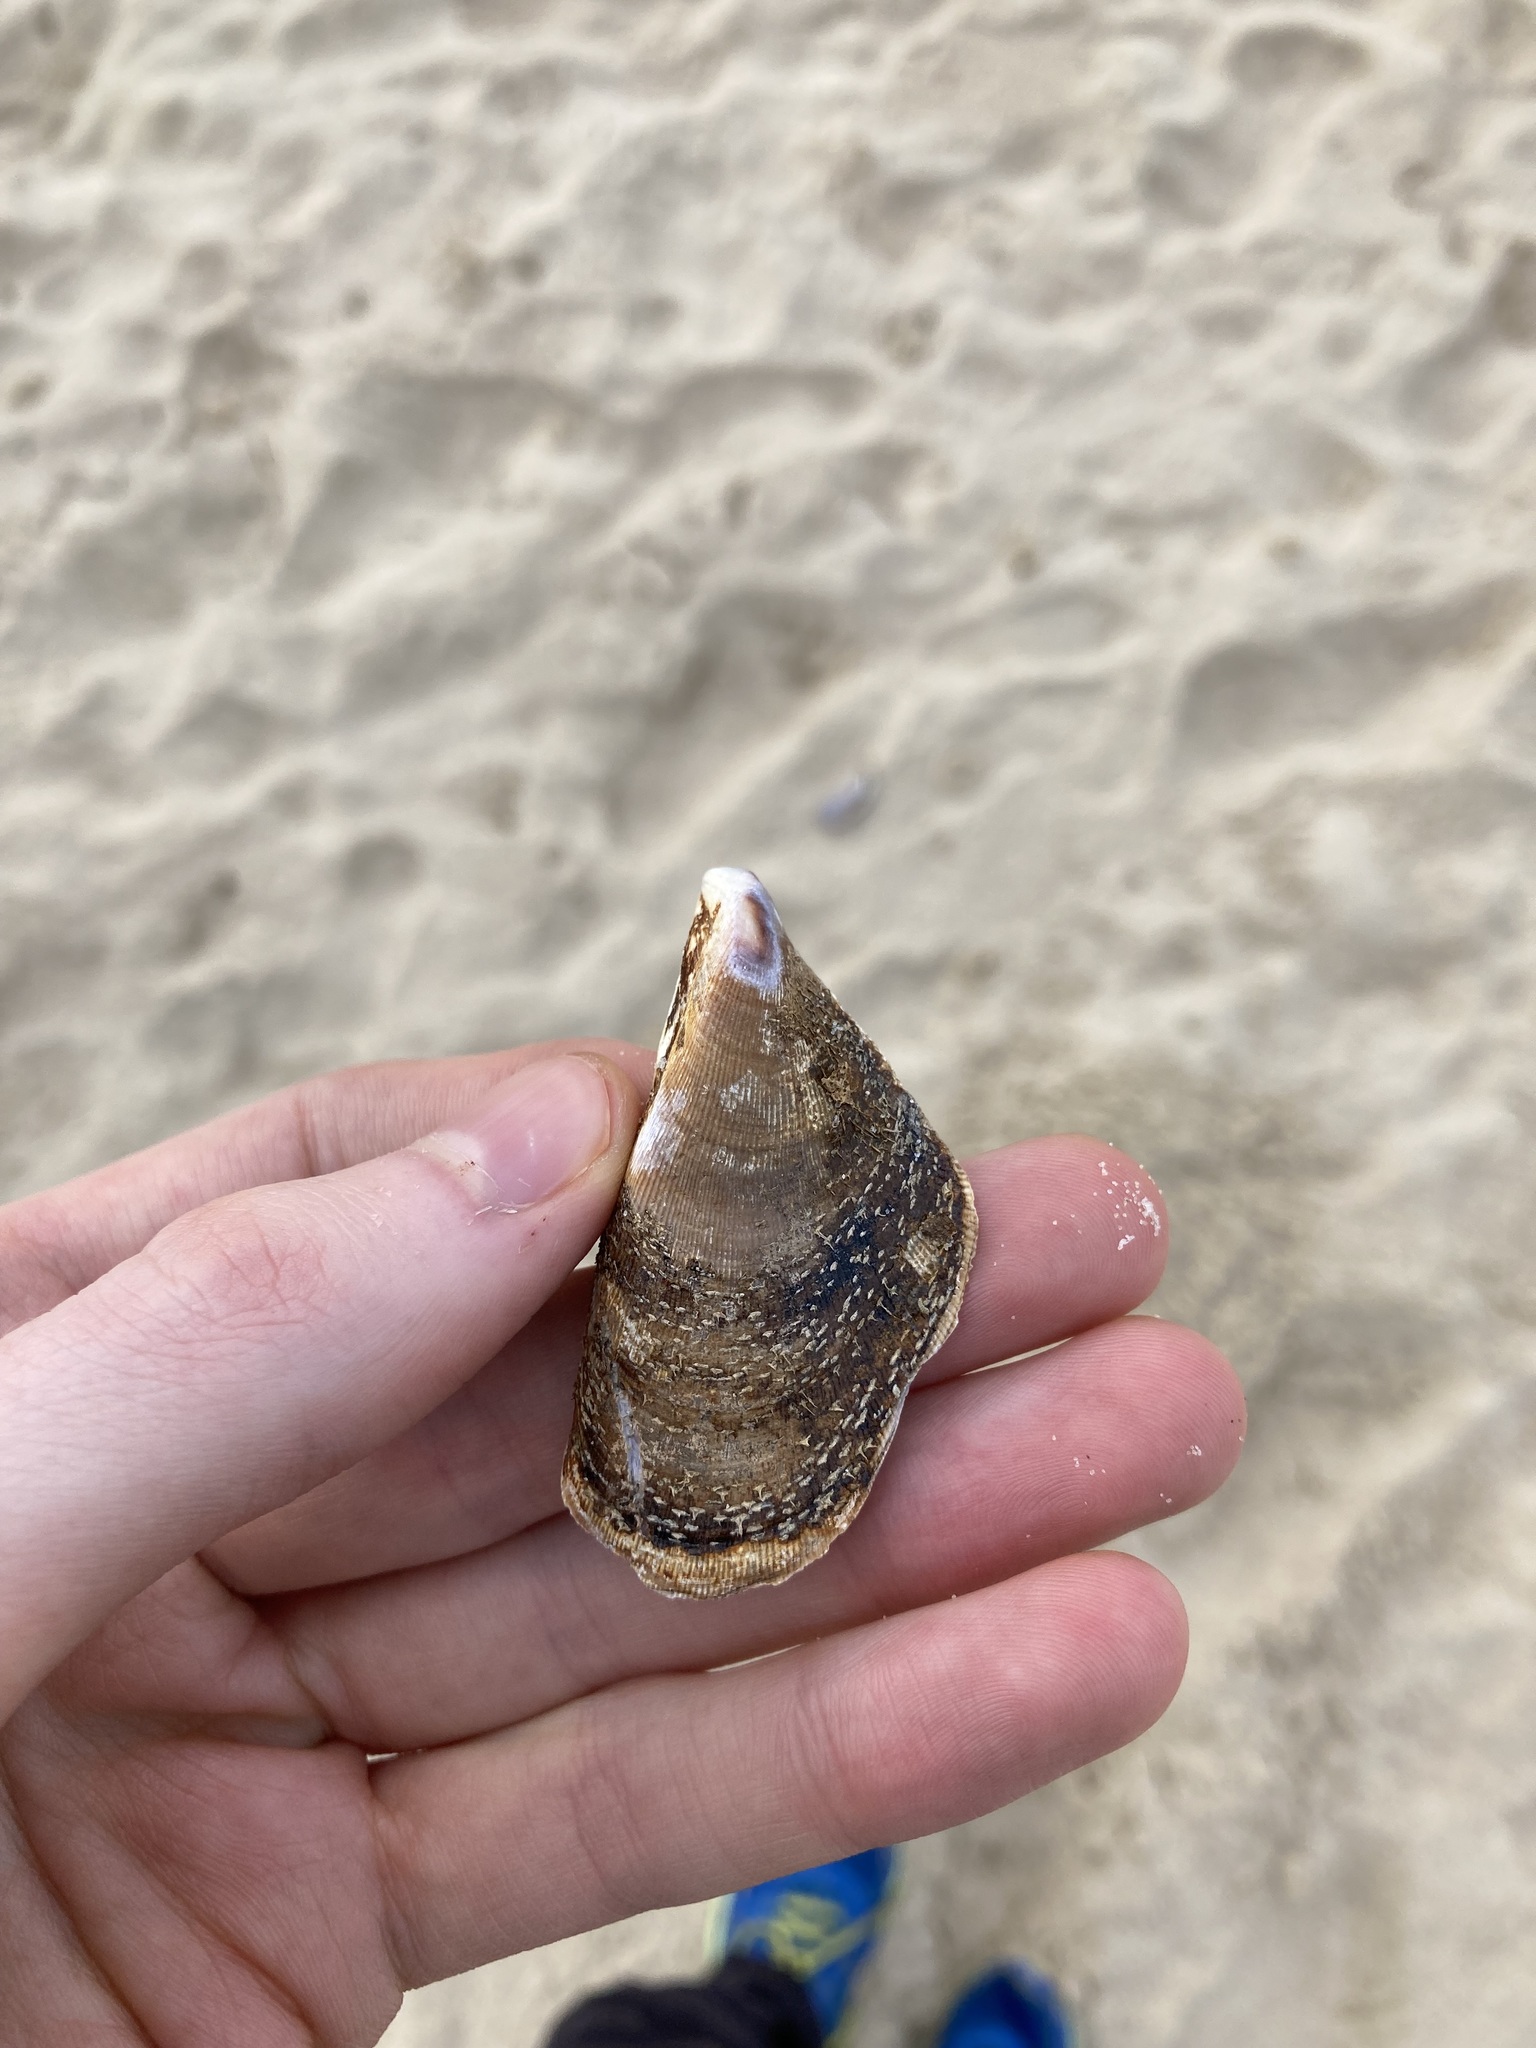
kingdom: Animalia
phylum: Mollusca
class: Bivalvia
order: Mytilida
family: Mytilidae
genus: Trichomya
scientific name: Trichomya hirsuta
